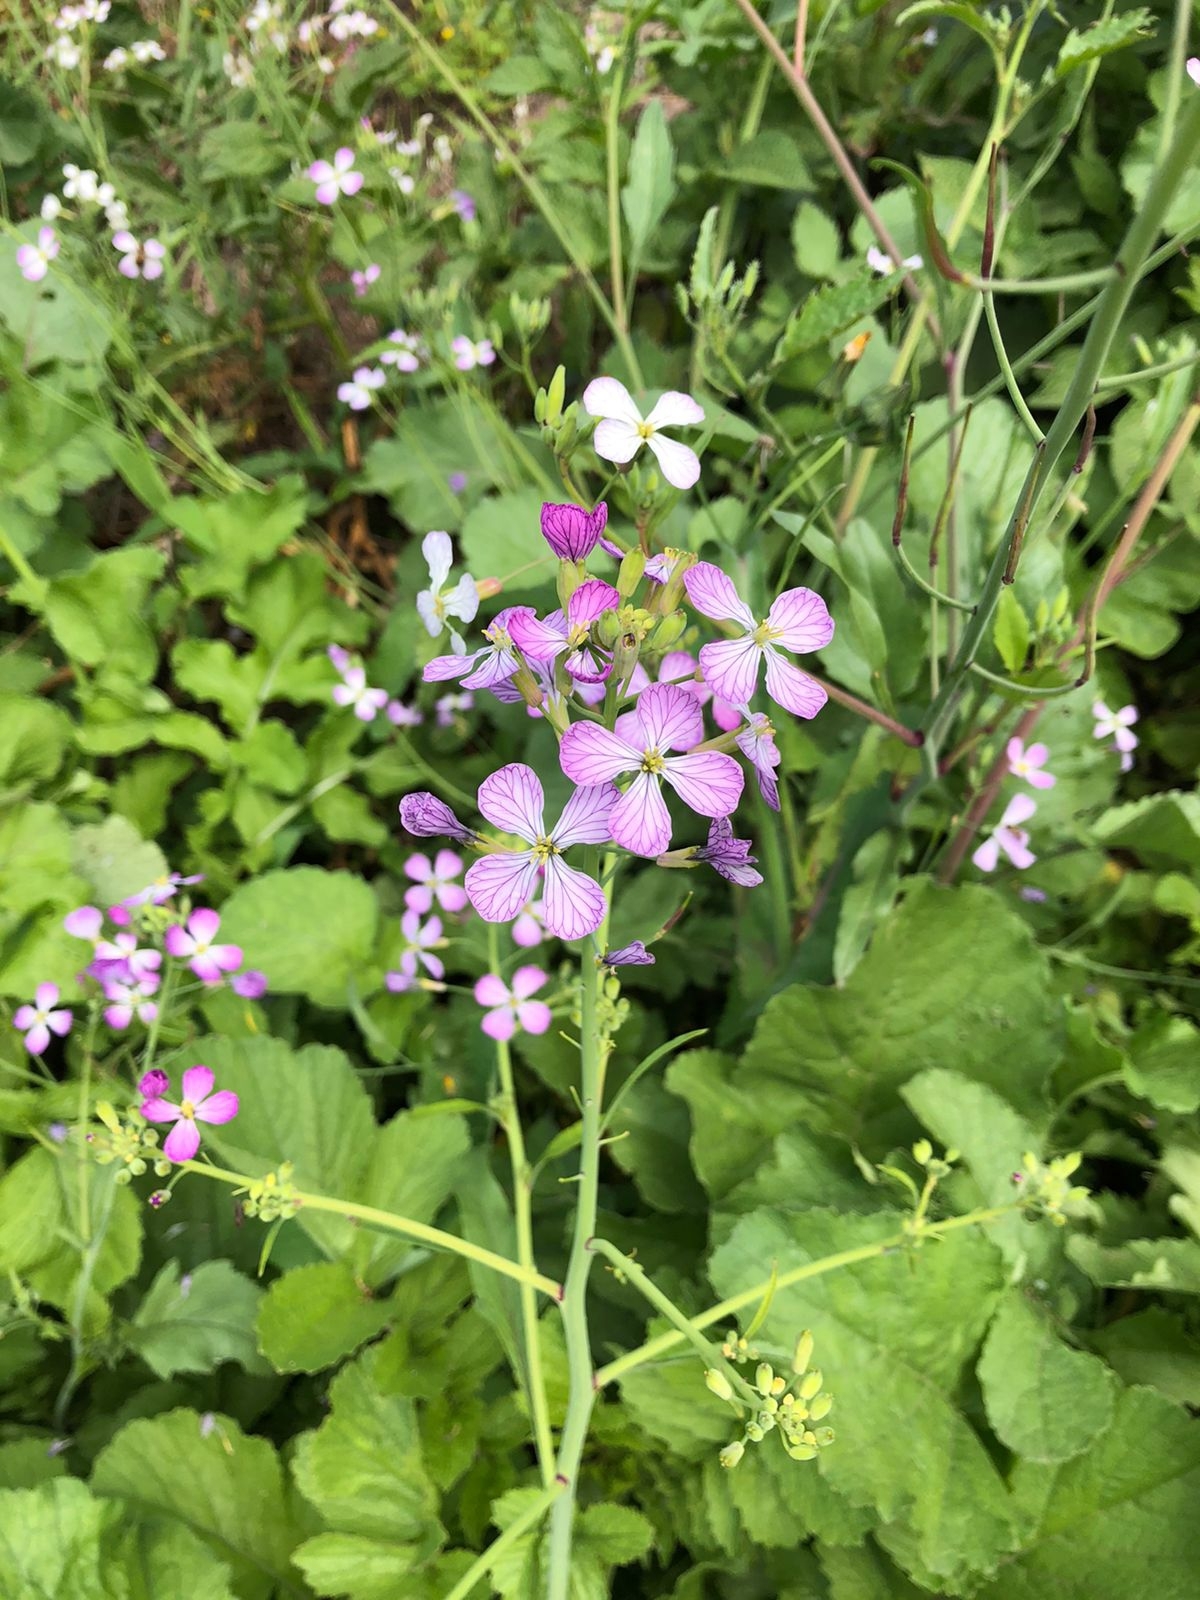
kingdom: Plantae
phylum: Tracheophyta
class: Magnoliopsida
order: Brassicales
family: Brassicaceae
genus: Raphanus
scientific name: Raphanus sativus
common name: Cultivated radish
